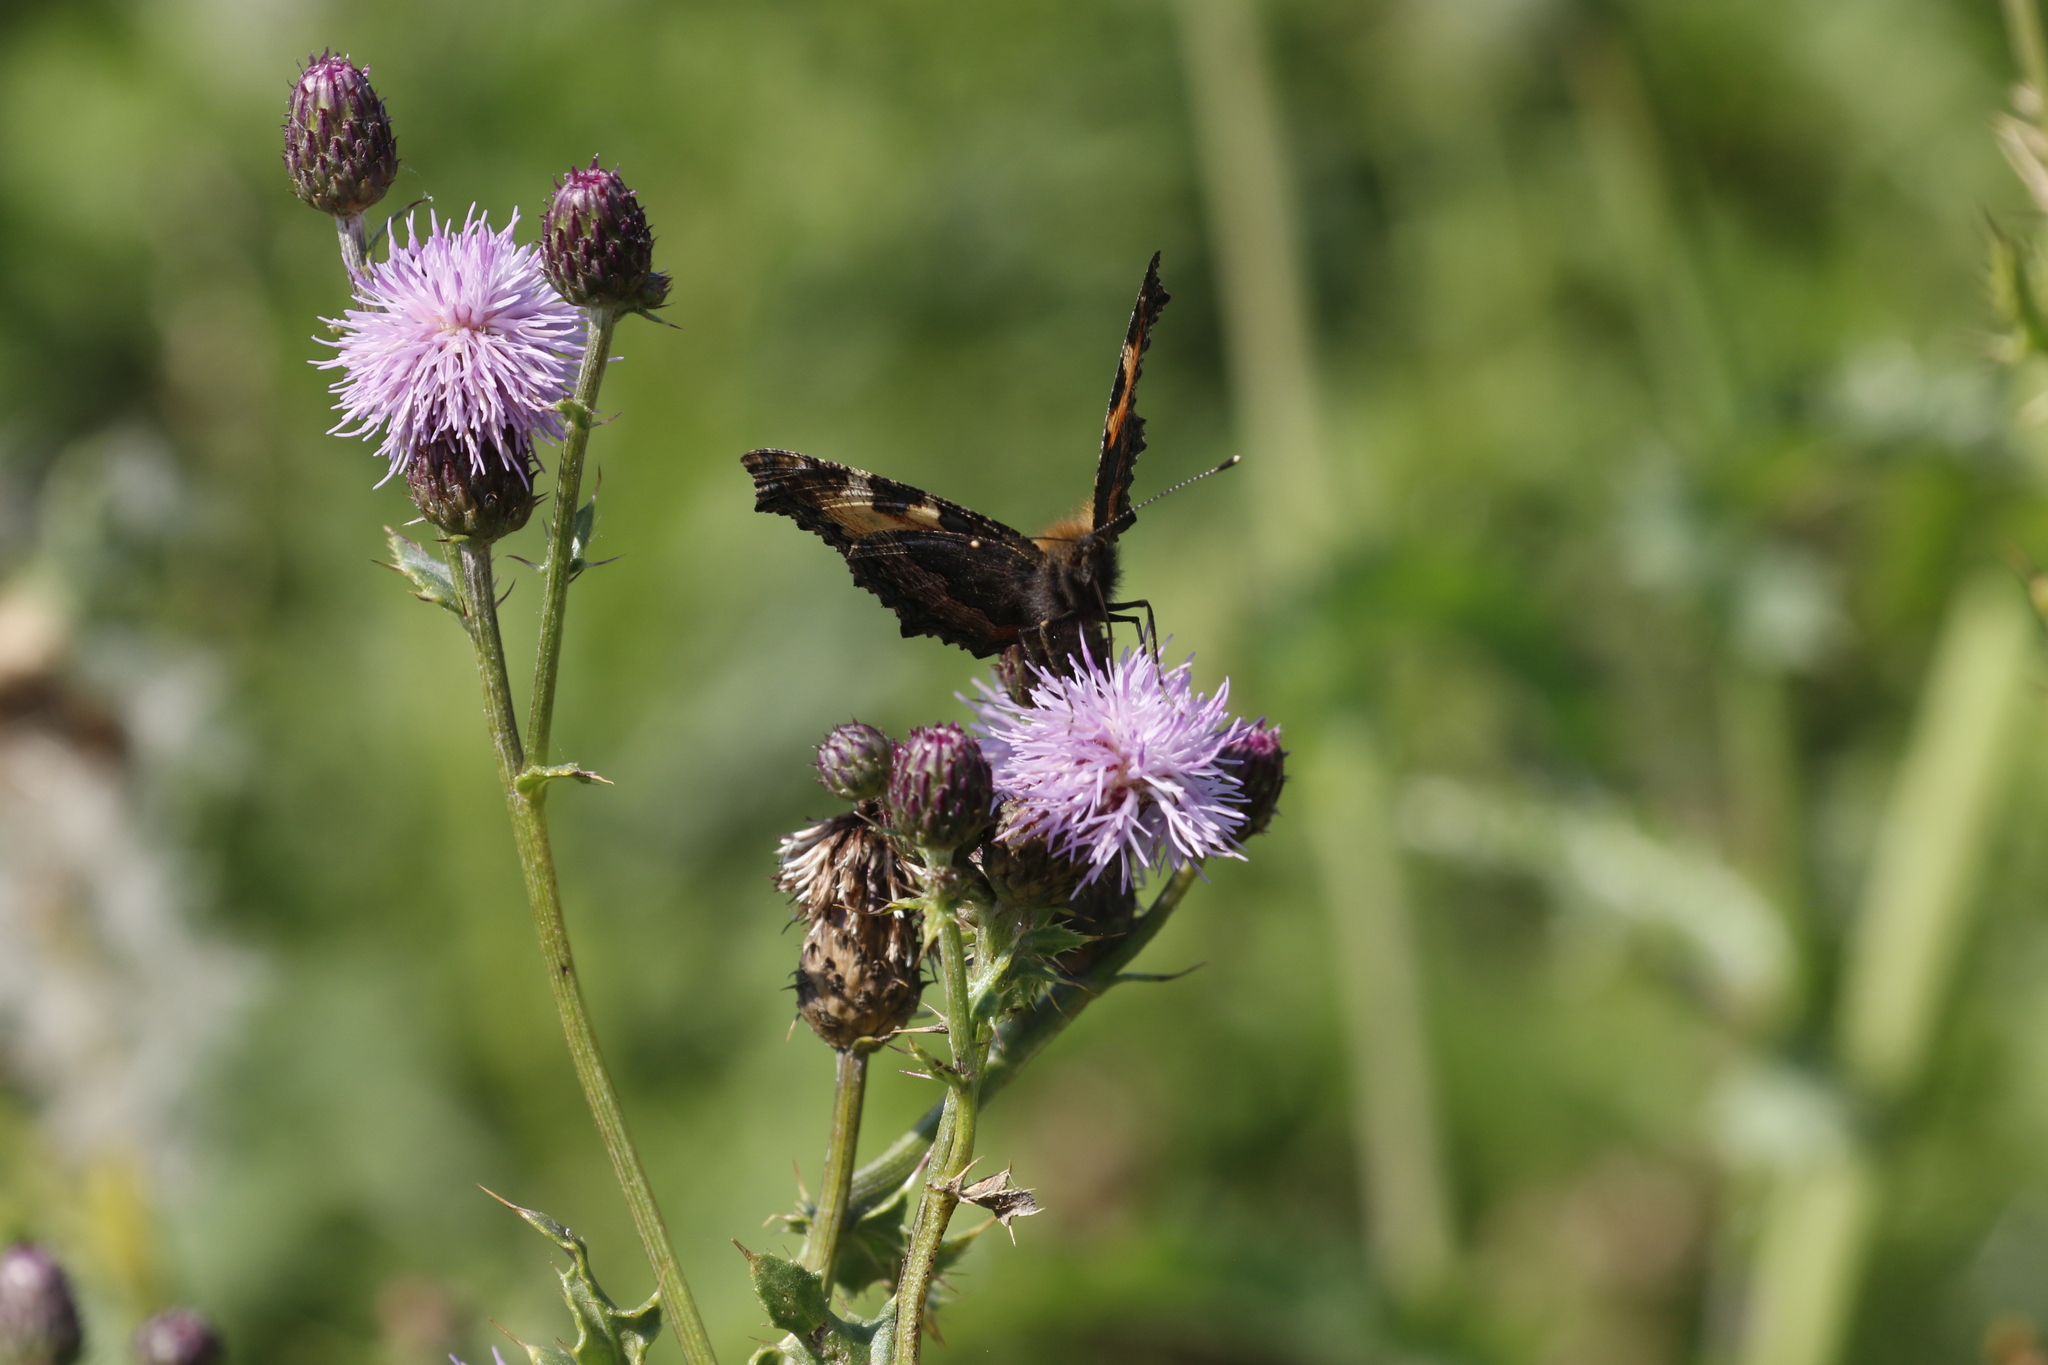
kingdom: Animalia
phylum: Arthropoda
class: Insecta
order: Lepidoptera
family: Nymphalidae
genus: Aglais
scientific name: Aglais urticae
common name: Small tortoiseshell
